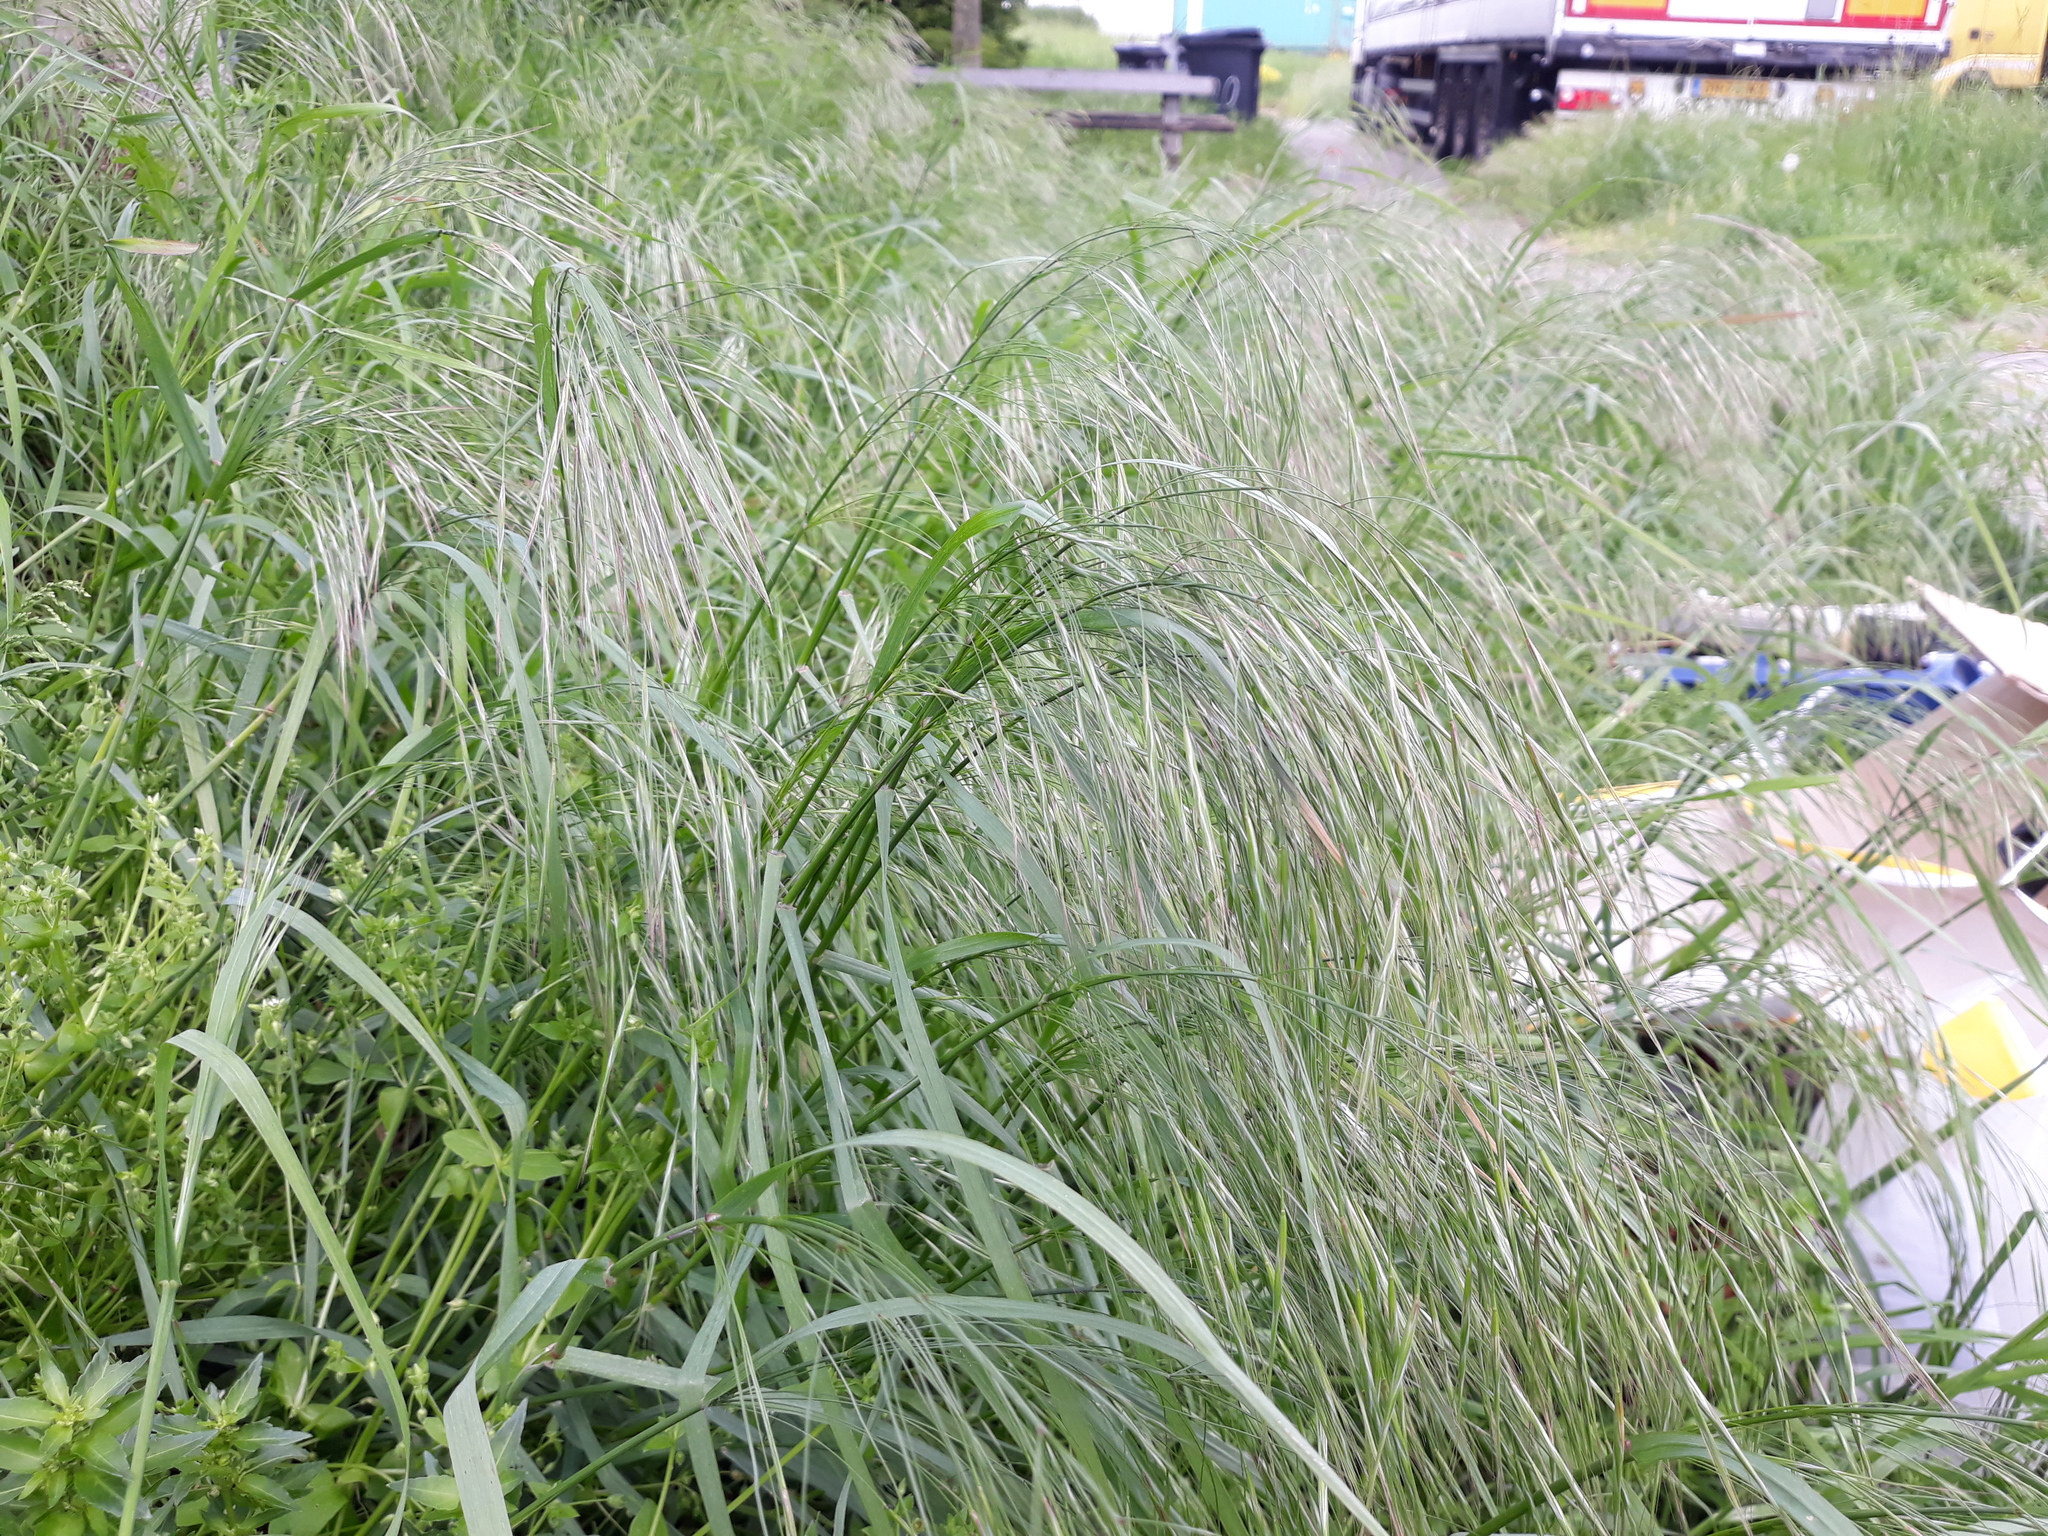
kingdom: Plantae
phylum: Tracheophyta
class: Liliopsida
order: Poales
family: Poaceae
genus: Bromus
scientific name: Bromus sterilis
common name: Poverty brome
